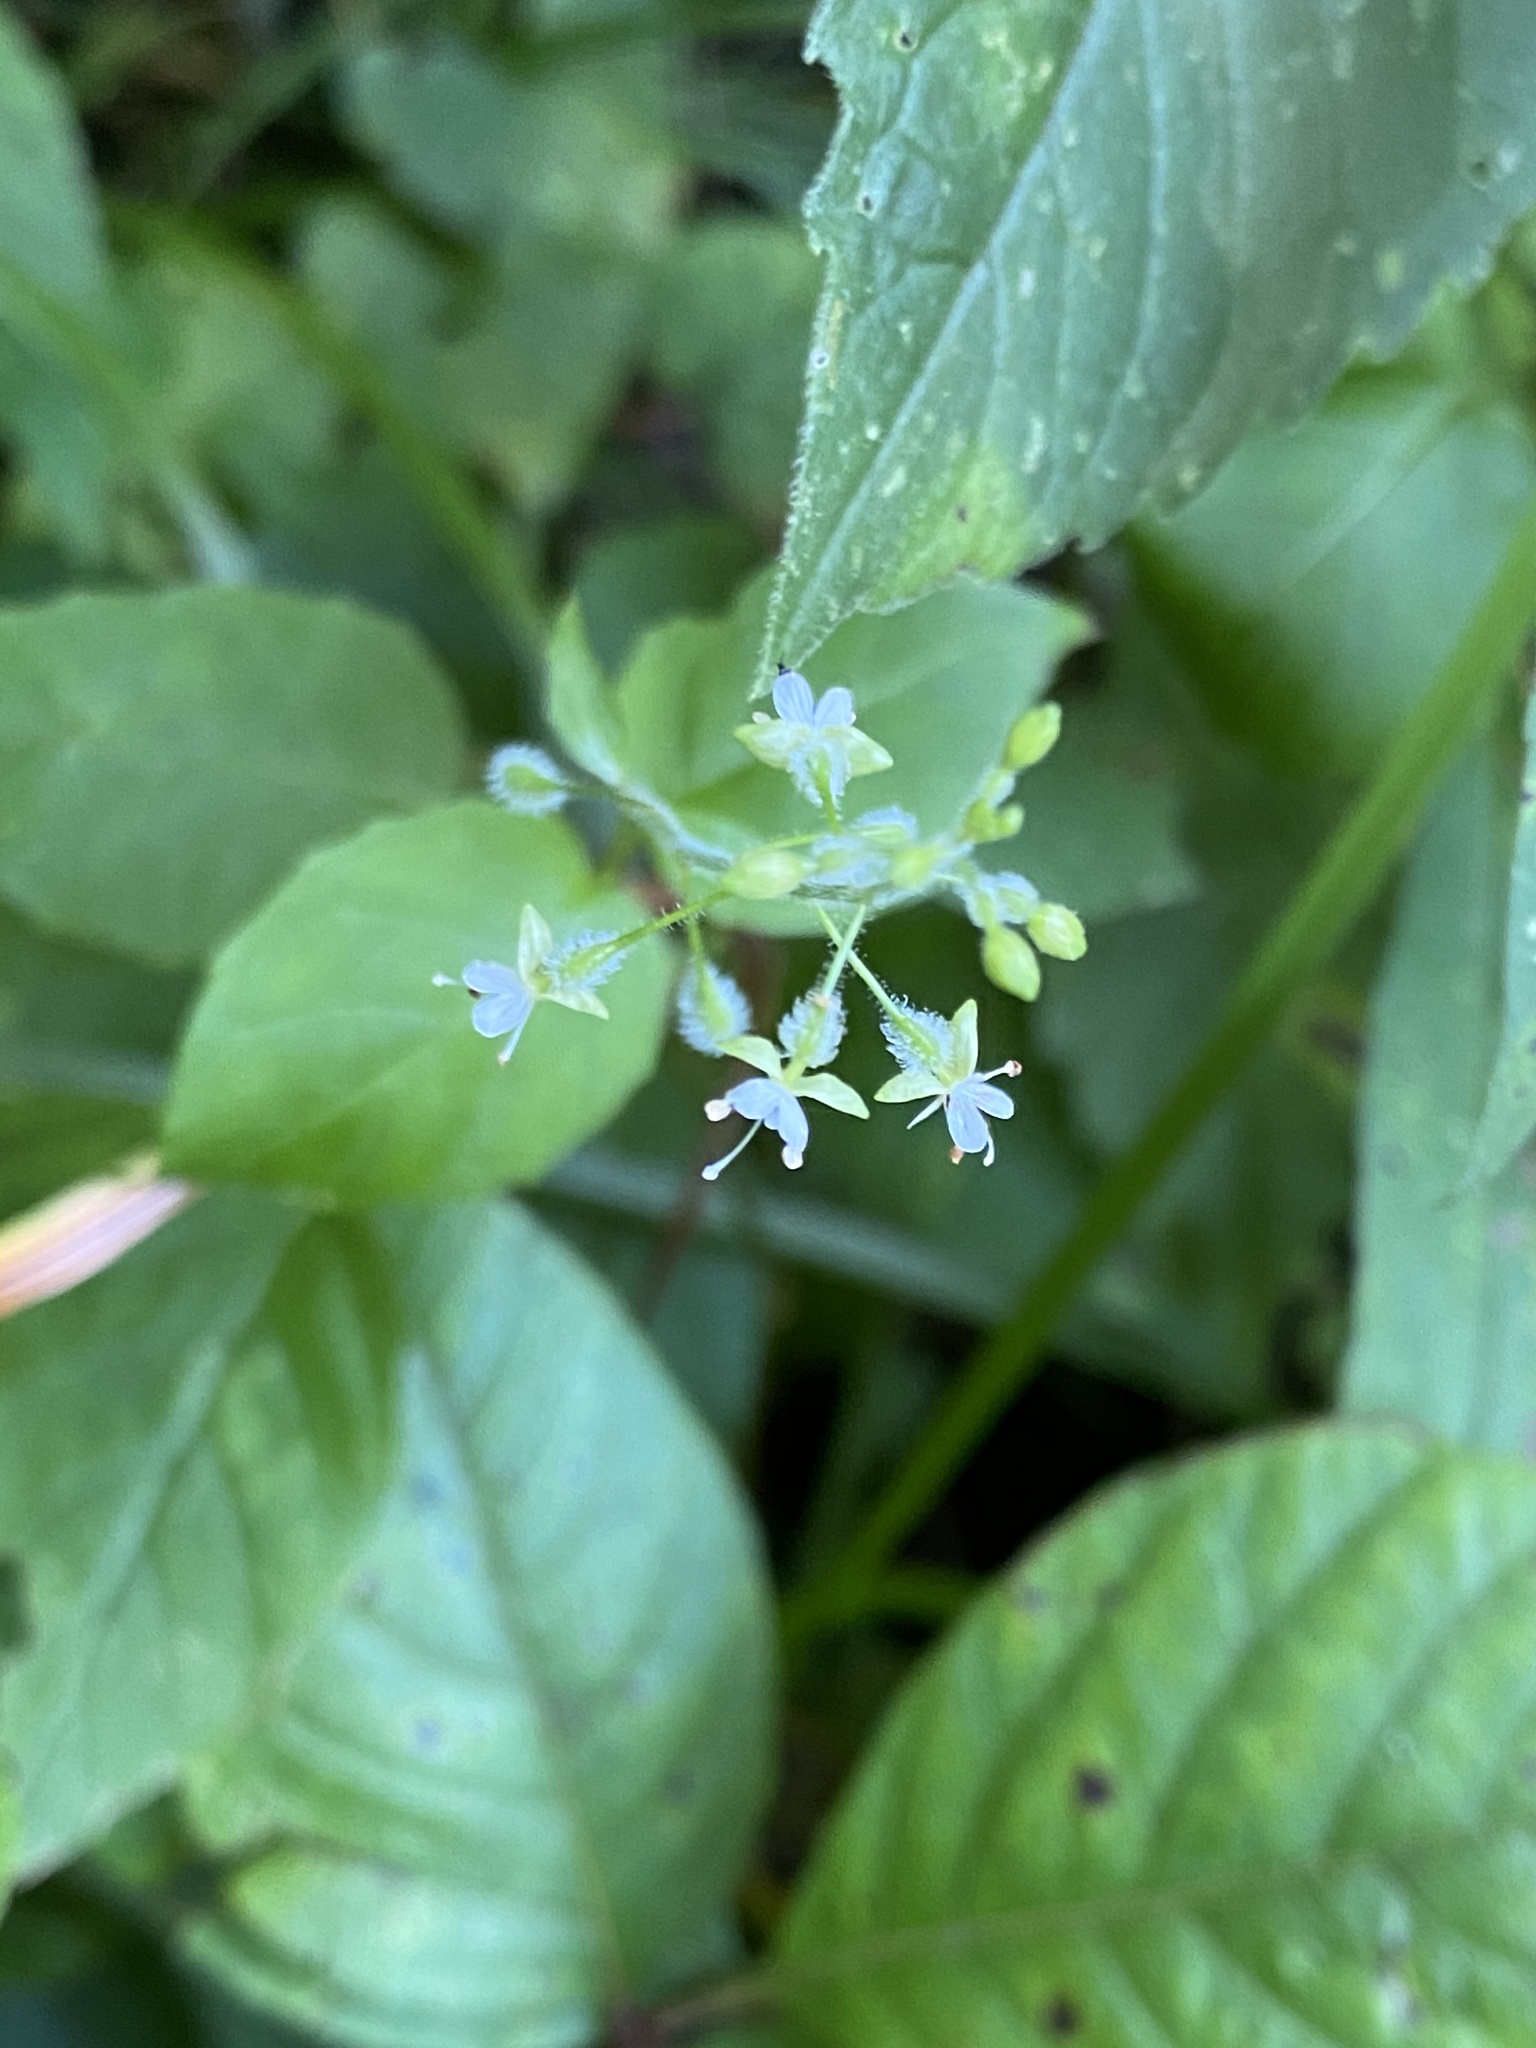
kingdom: Plantae
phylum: Tracheophyta
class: Magnoliopsida
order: Myrtales
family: Onagraceae
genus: Circaea
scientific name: Circaea canadensis
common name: Broad-leaved enchanter's nightshade
